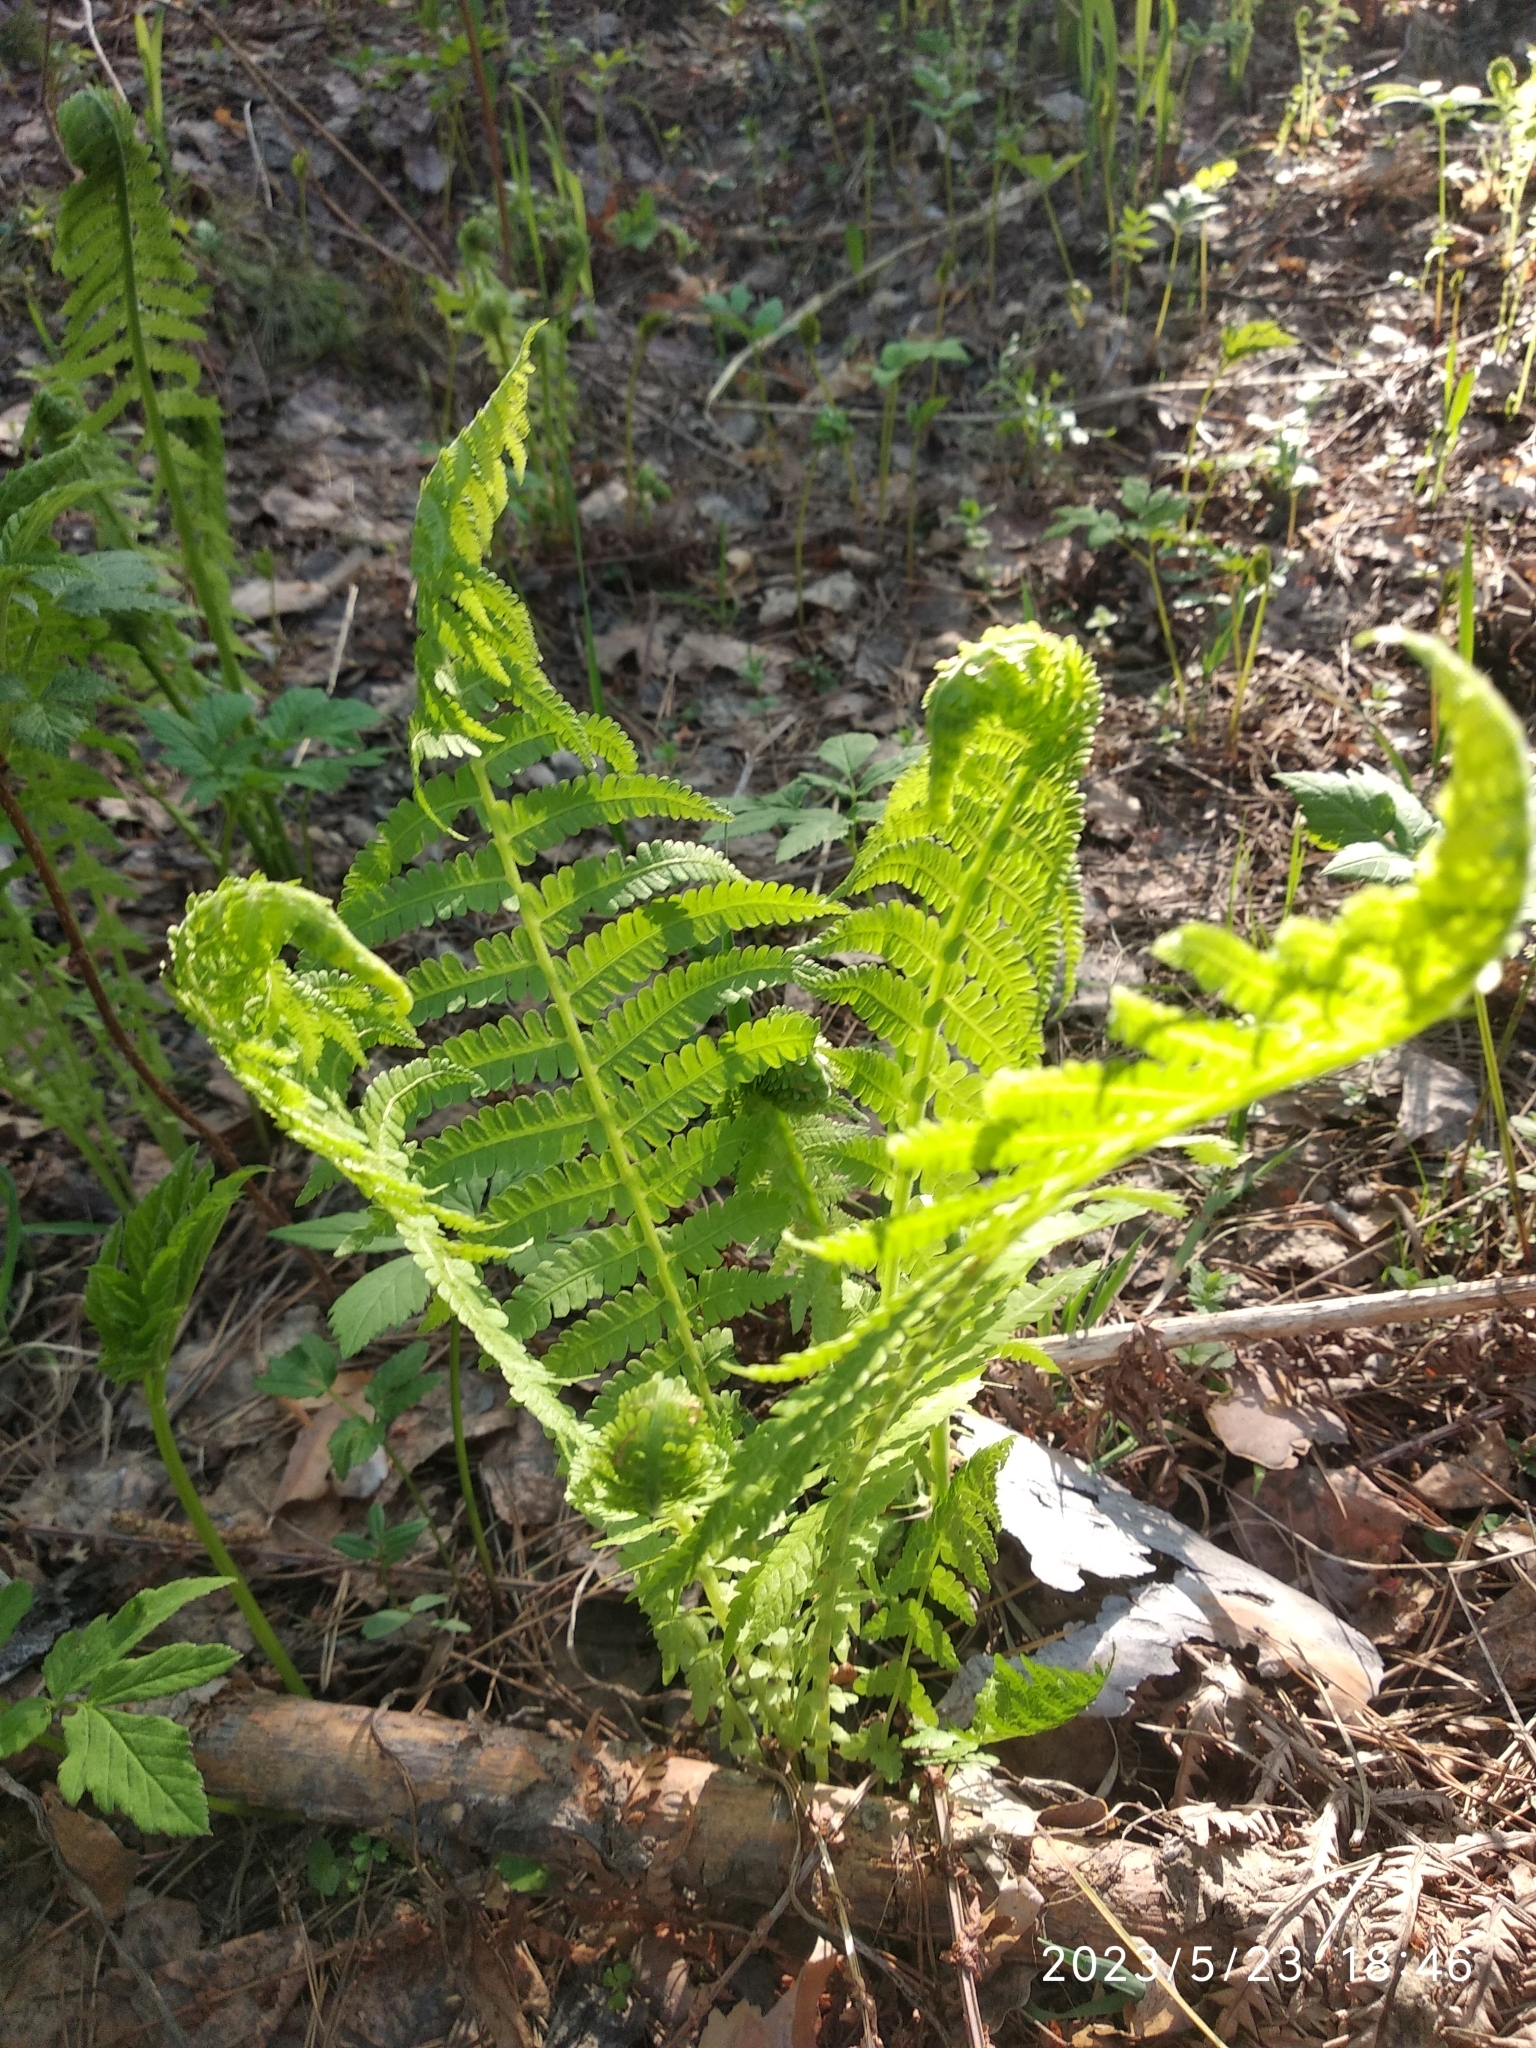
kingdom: Plantae
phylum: Tracheophyta
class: Polypodiopsida
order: Polypodiales
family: Onocleaceae
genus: Matteuccia
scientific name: Matteuccia struthiopteris
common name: Ostrich fern
